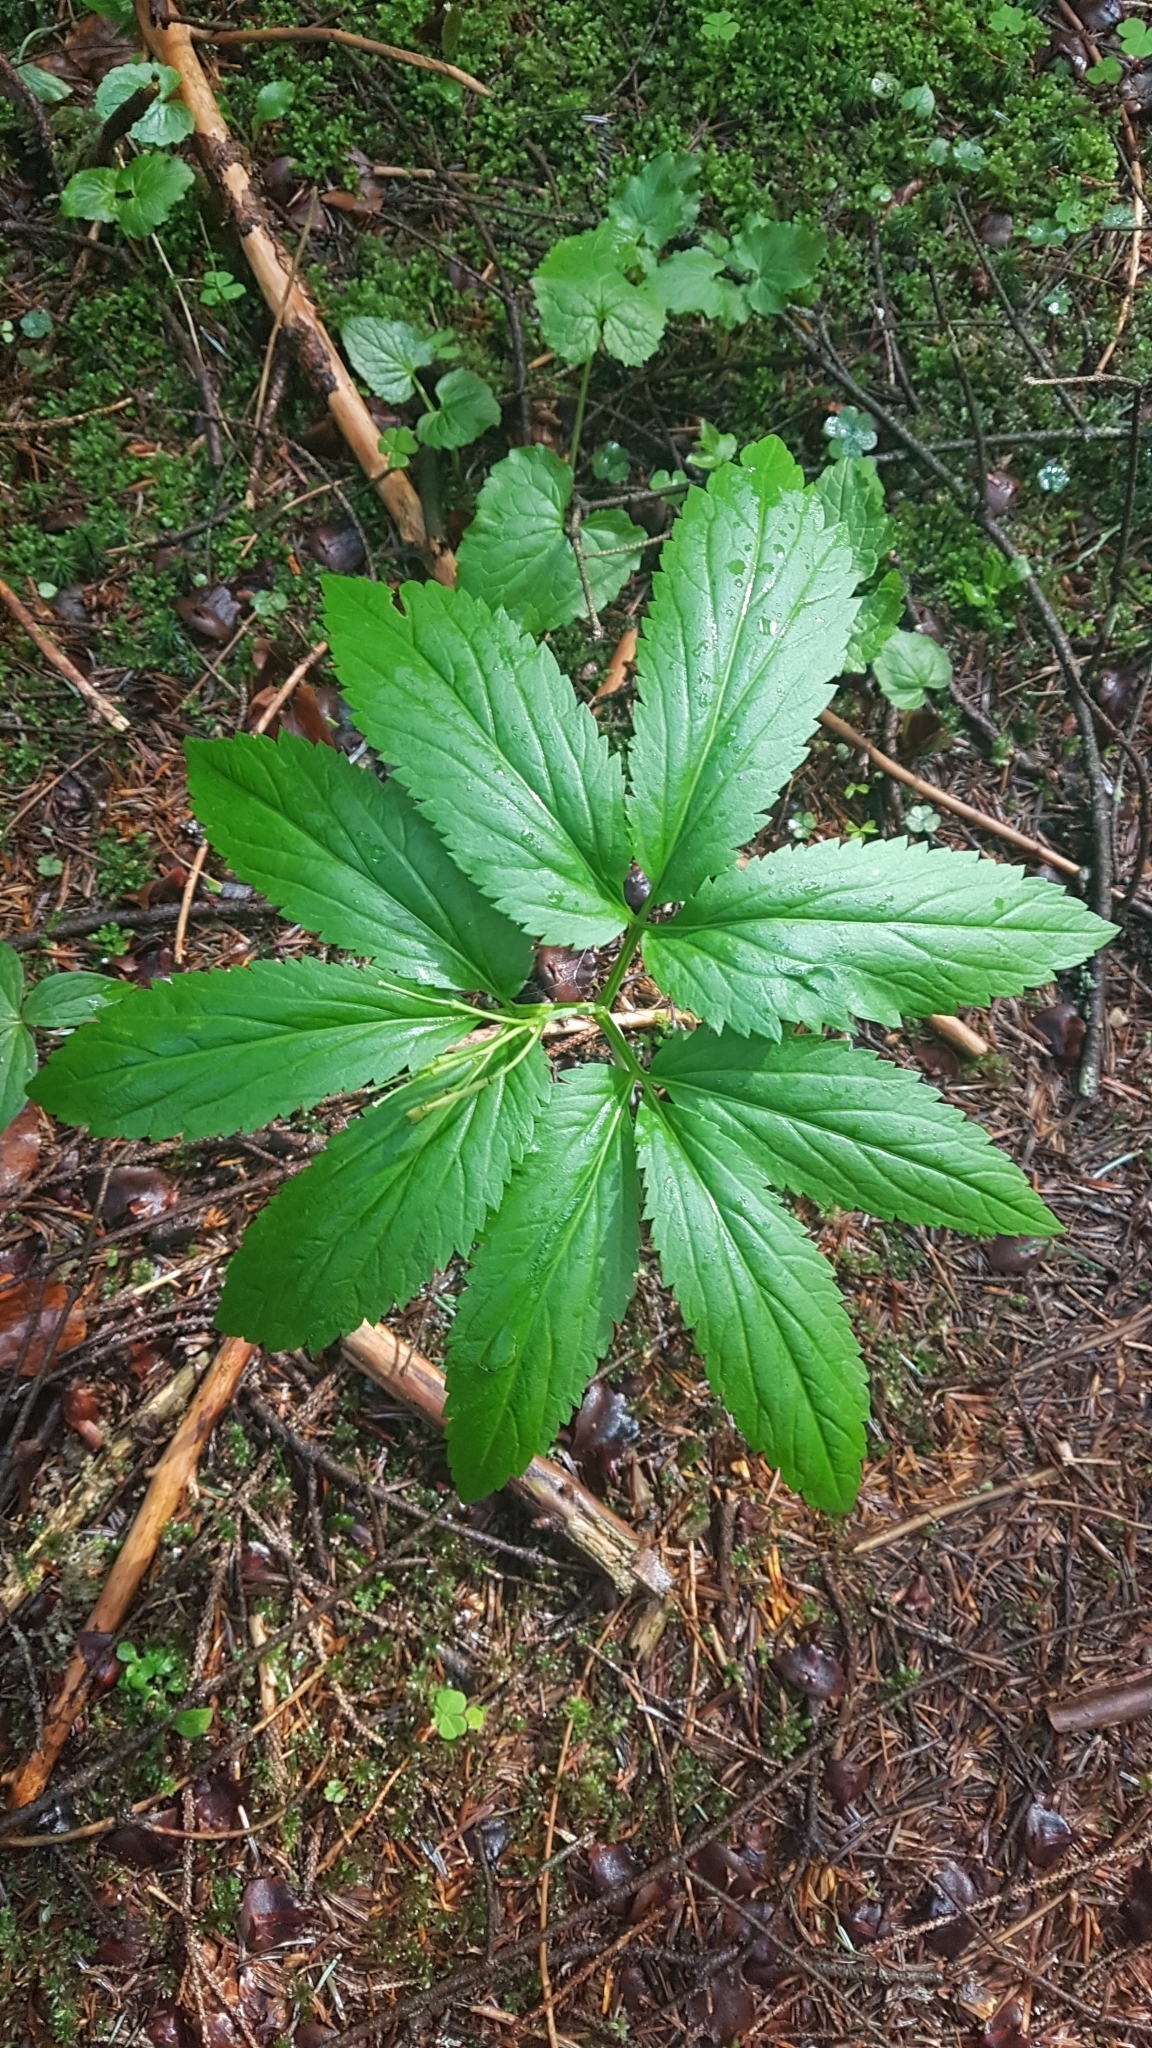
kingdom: Plantae
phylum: Tracheophyta
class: Magnoliopsida
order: Brassicales
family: Brassicaceae
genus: Cardamine
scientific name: Cardamine enneaphyllos
